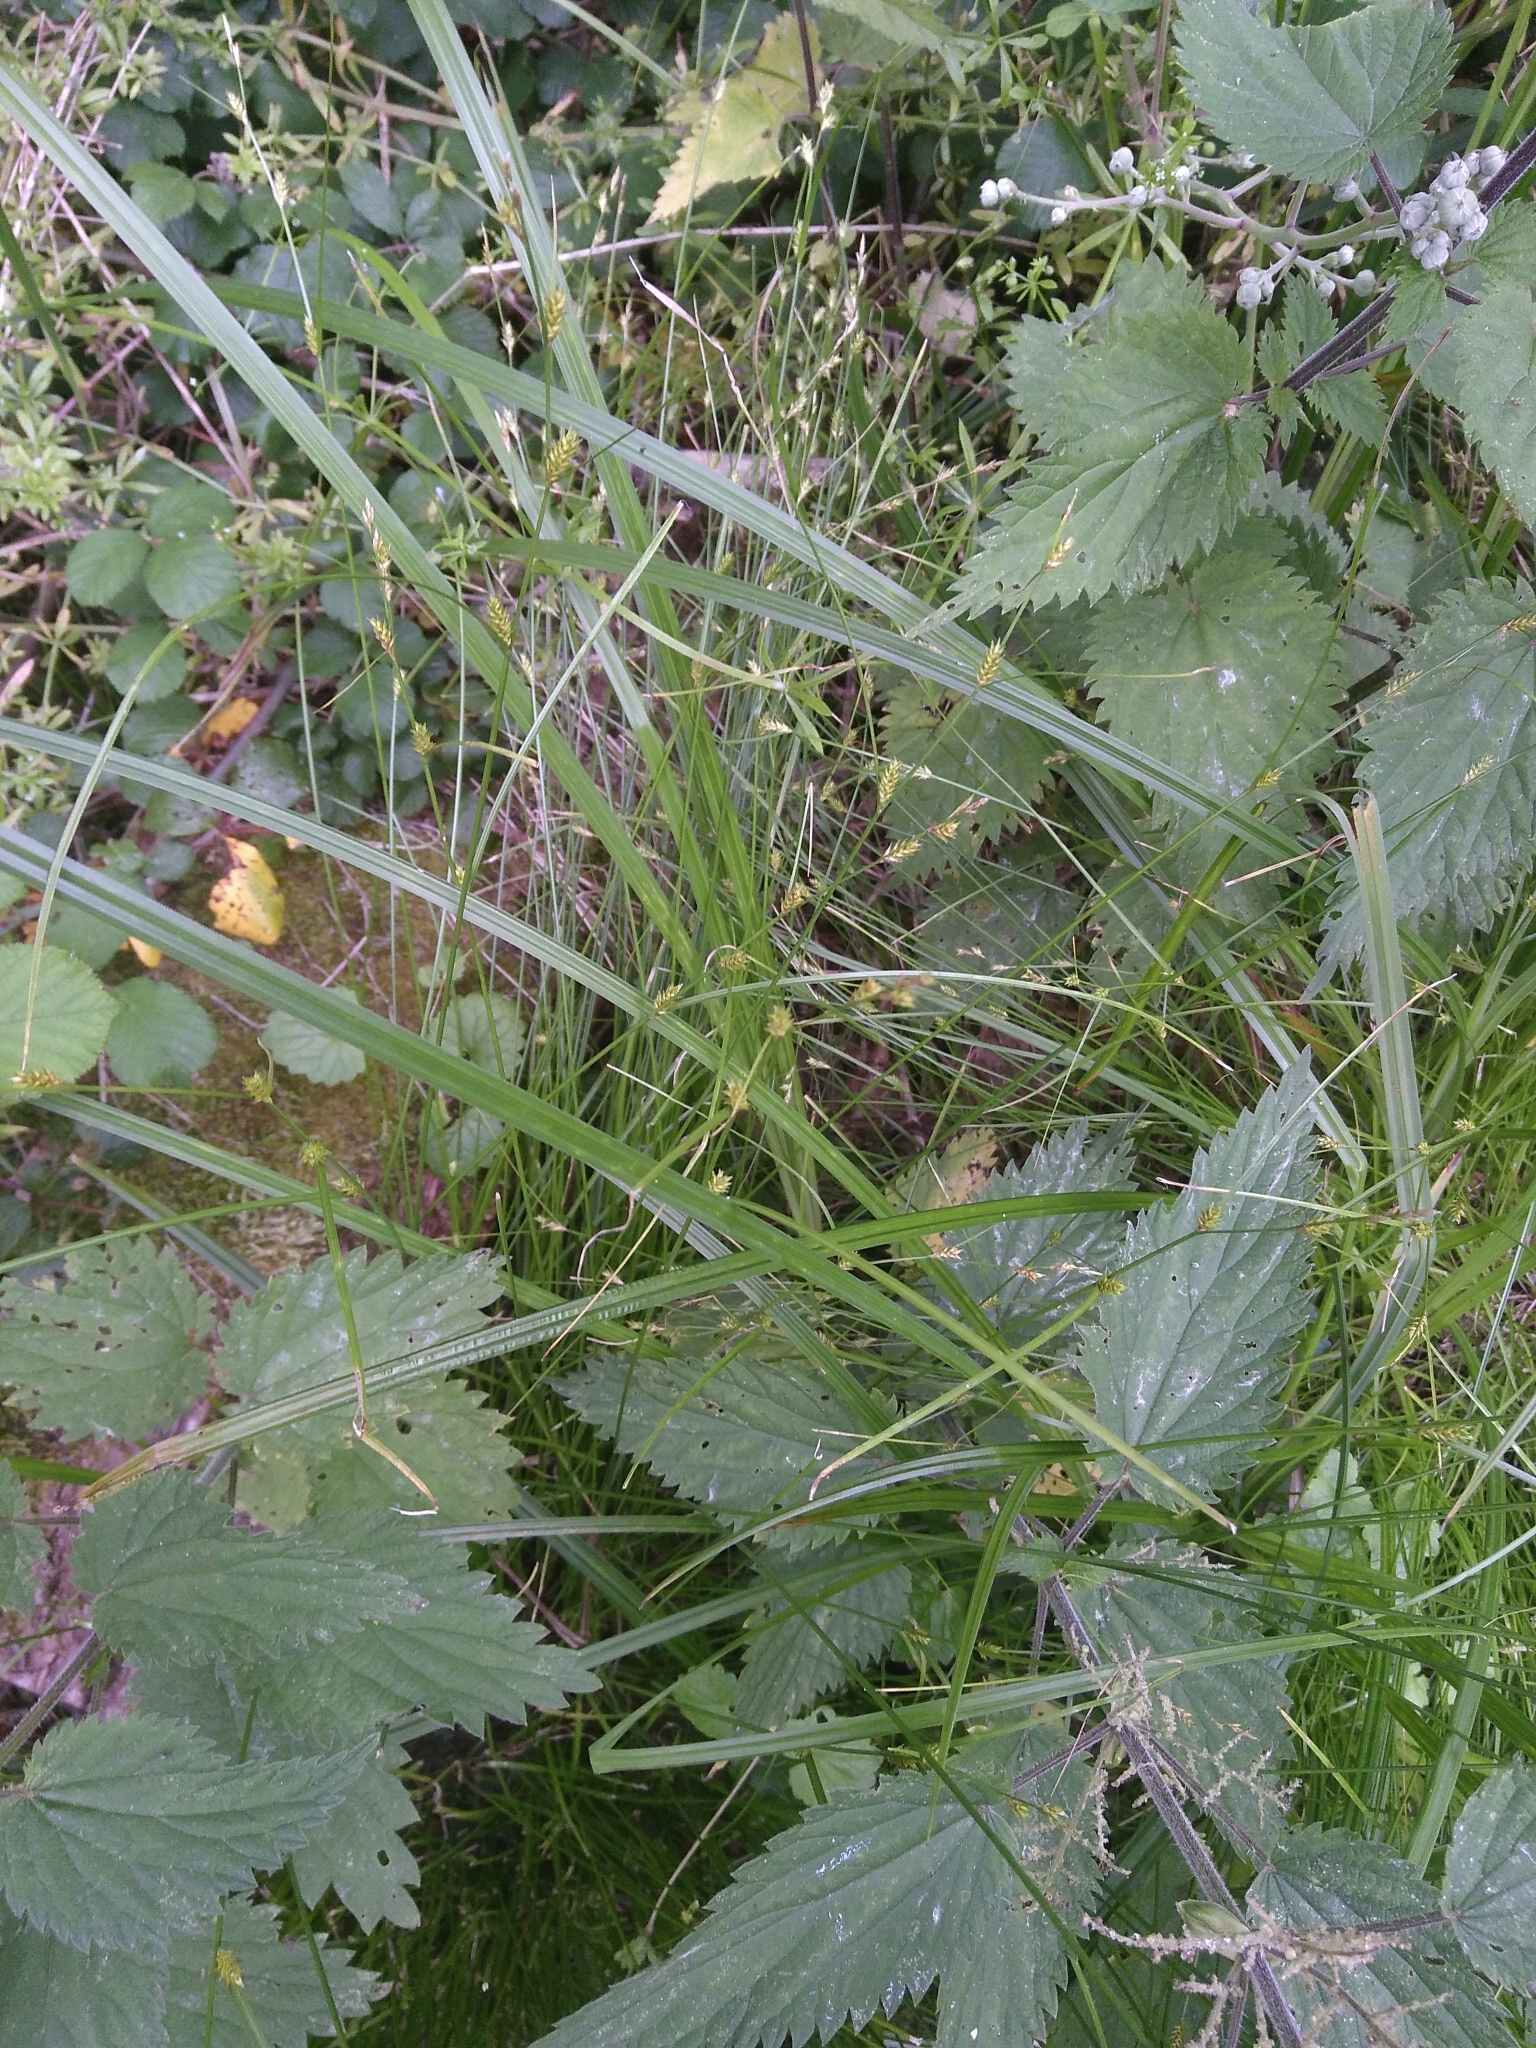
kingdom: Plantae
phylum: Tracheophyta
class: Liliopsida
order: Poales
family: Cyperaceae
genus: Carex
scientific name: Carex remota
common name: Remote sedge
